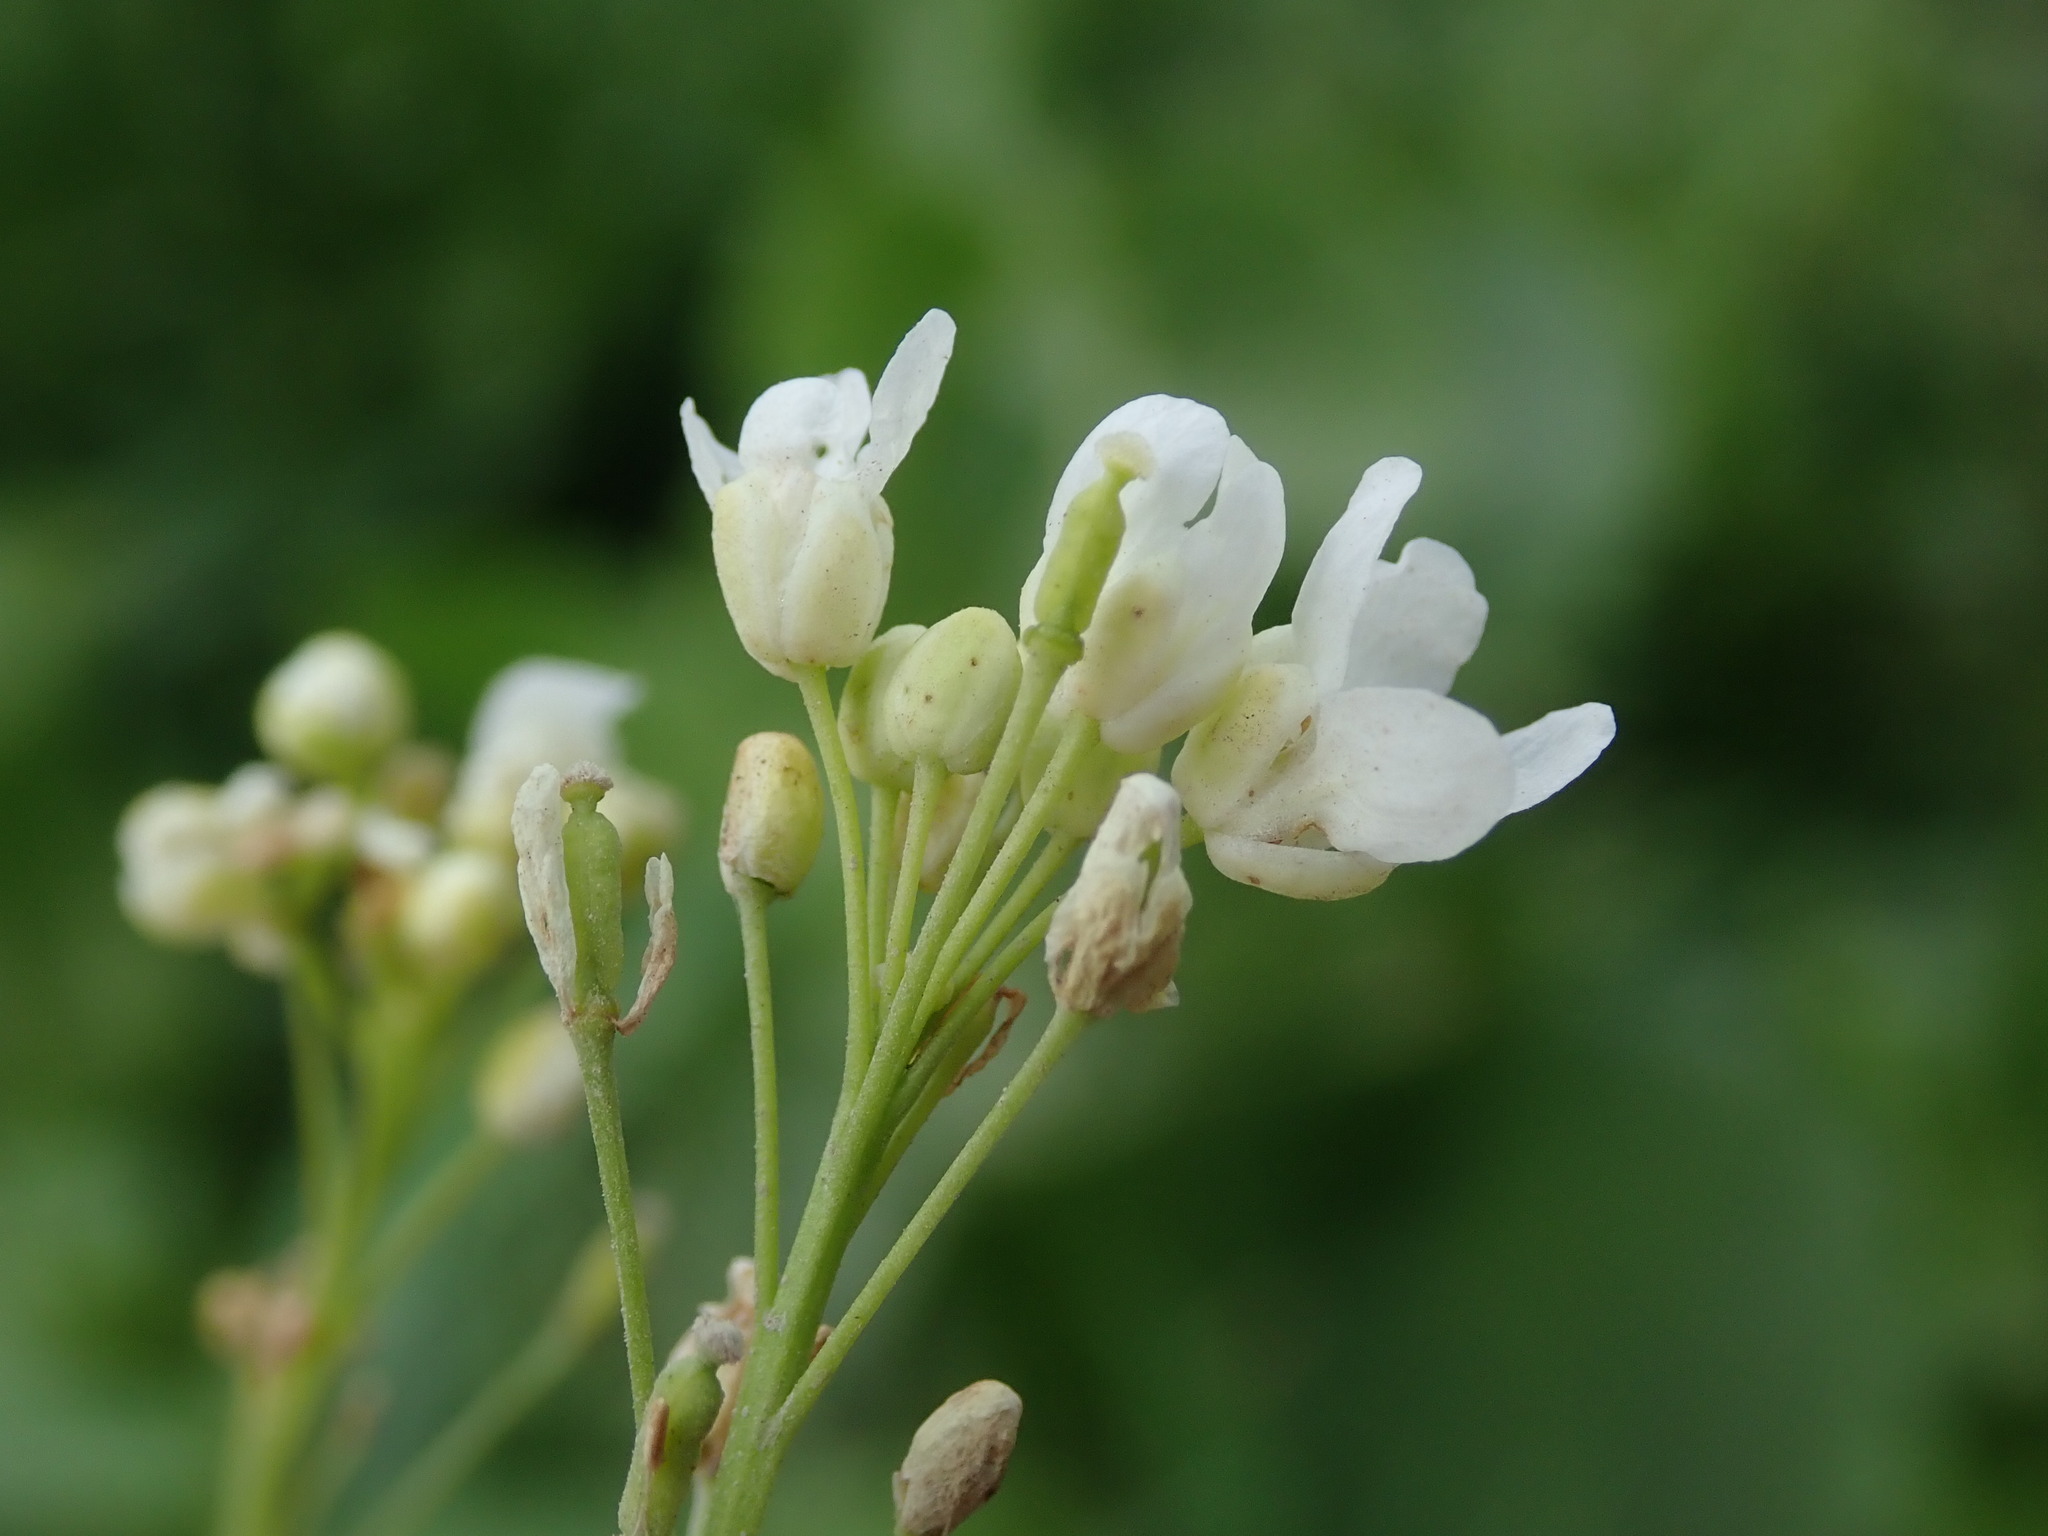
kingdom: Plantae
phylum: Tracheophyta
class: Magnoliopsida
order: Brassicales
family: Brassicaceae
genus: Armoracia
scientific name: Armoracia rusticana
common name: Horseradish
